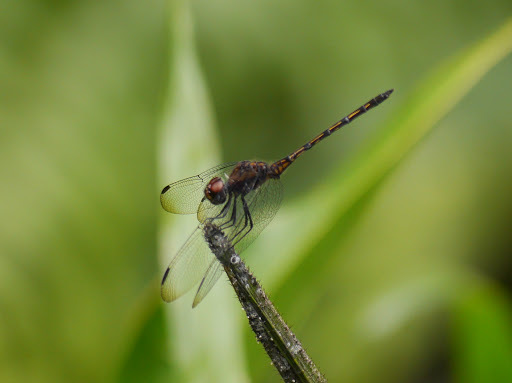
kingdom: Animalia
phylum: Arthropoda
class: Insecta
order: Odonata
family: Libellulidae
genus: Trithemis
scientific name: Trithemis aenea
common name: Bronze dropwing
